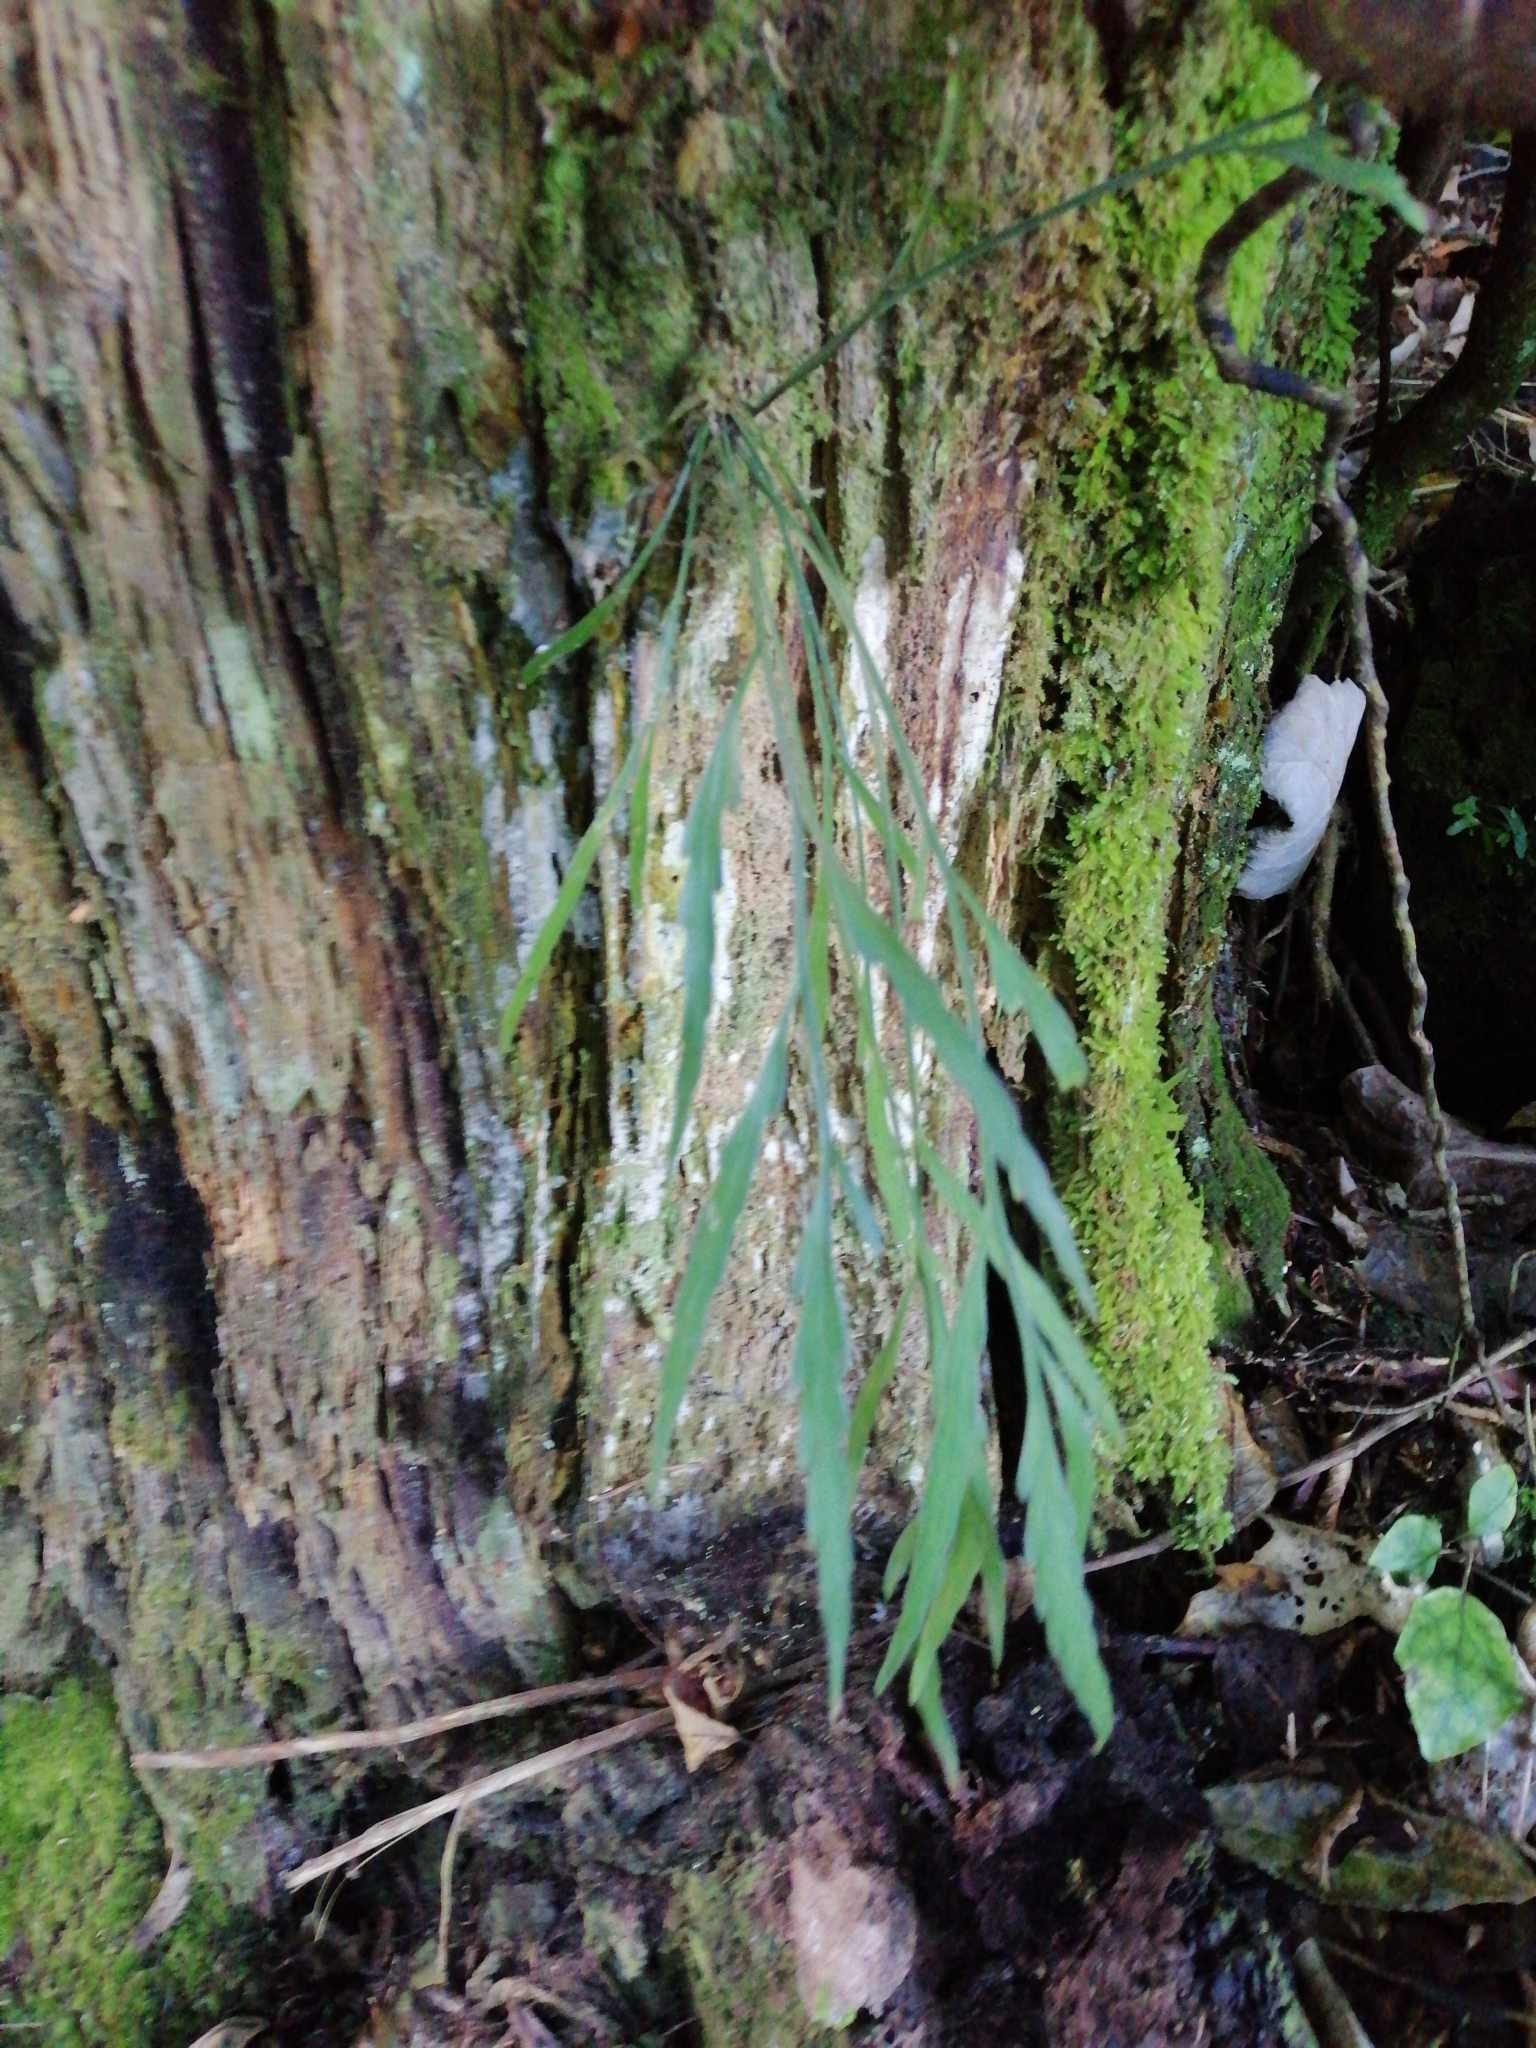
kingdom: Plantae
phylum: Tracheophyta
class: Polypodiopsida
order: Polypodiales
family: Aspleniaceae
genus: Asplenium
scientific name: Asplenium flaccidum
